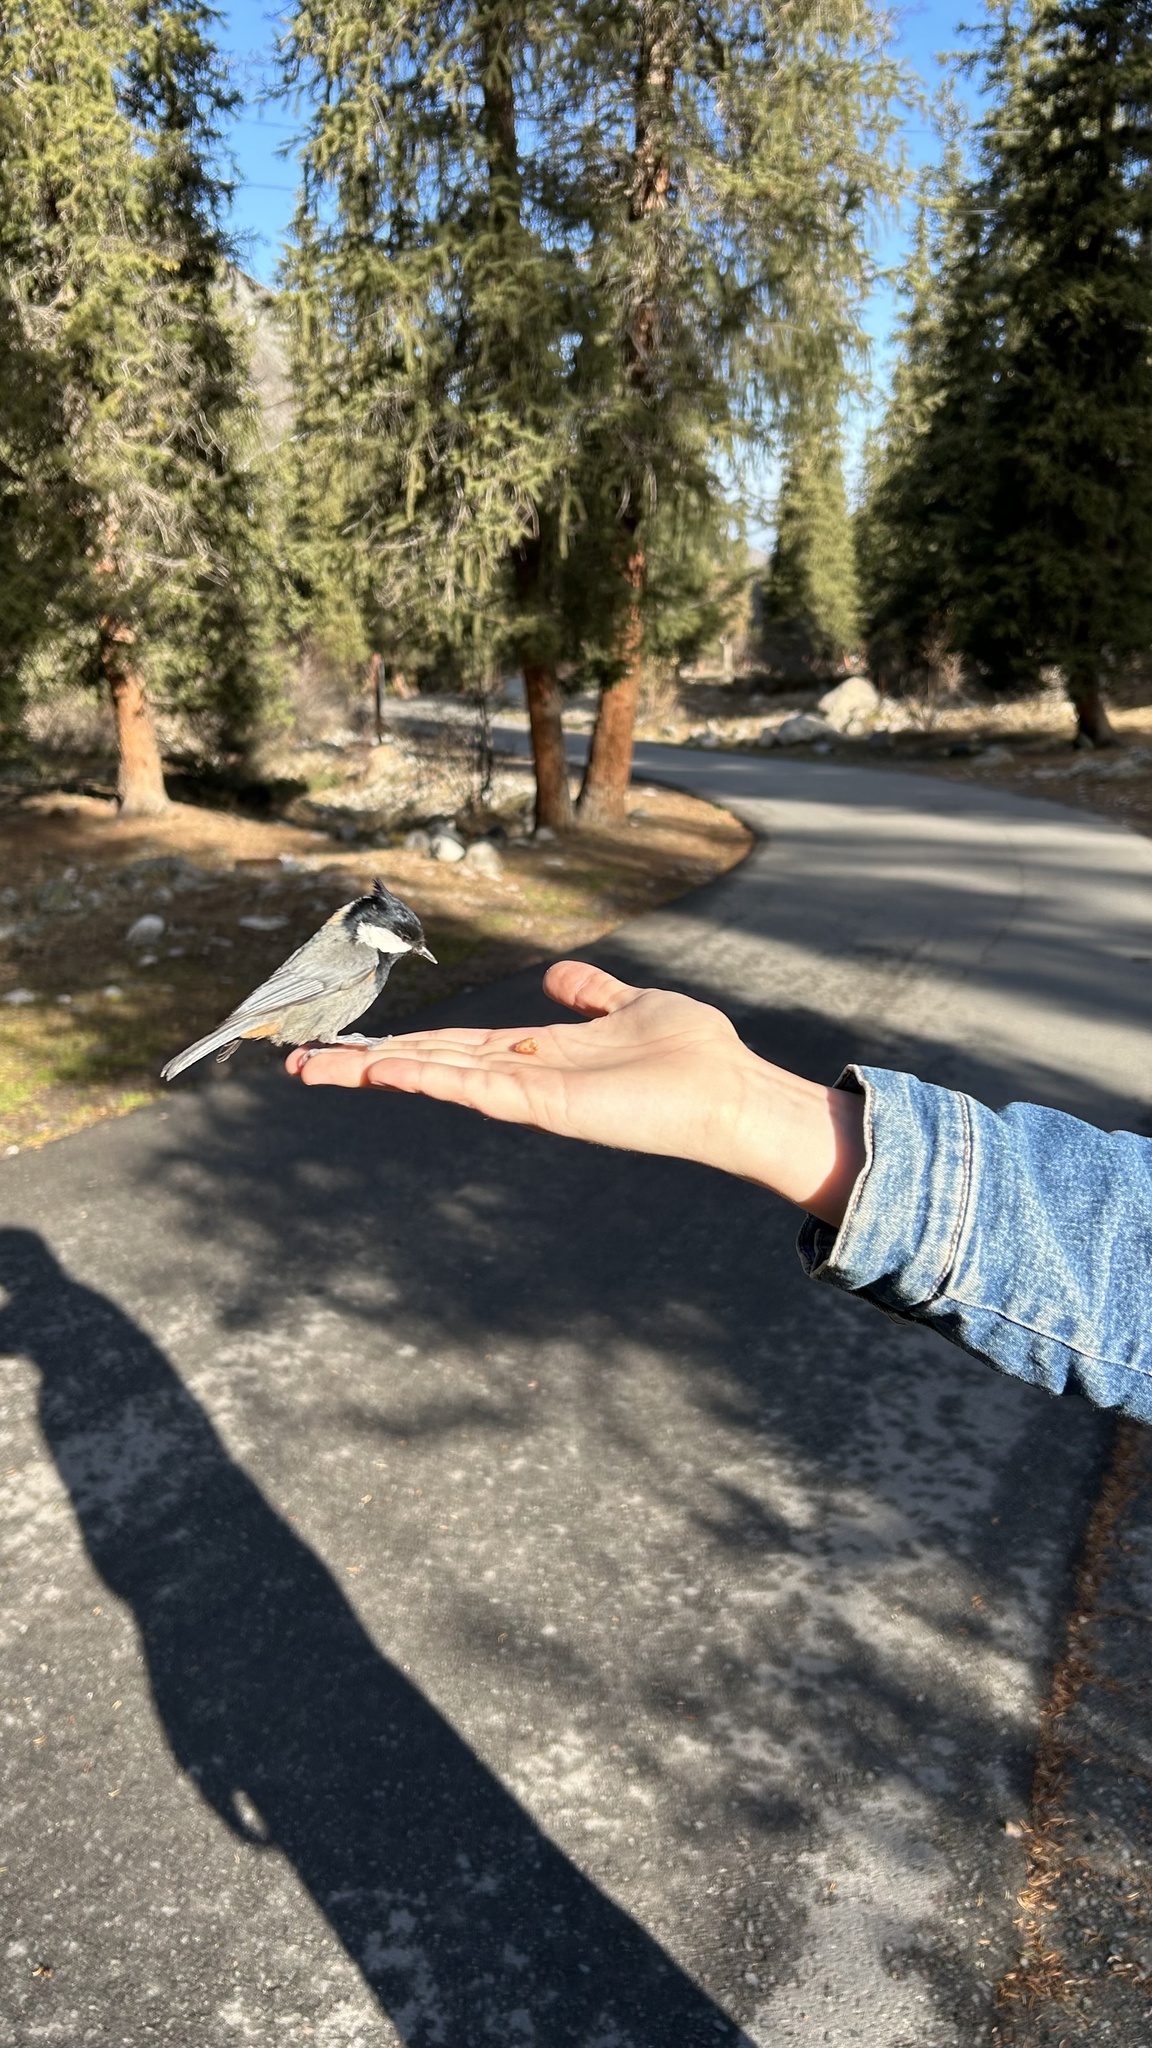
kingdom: Animalia
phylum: Chordata
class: Aves
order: Passeriformes
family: Paridae
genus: Periparus
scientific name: Periparus rufonuchalis
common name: Rufous-naped tit
